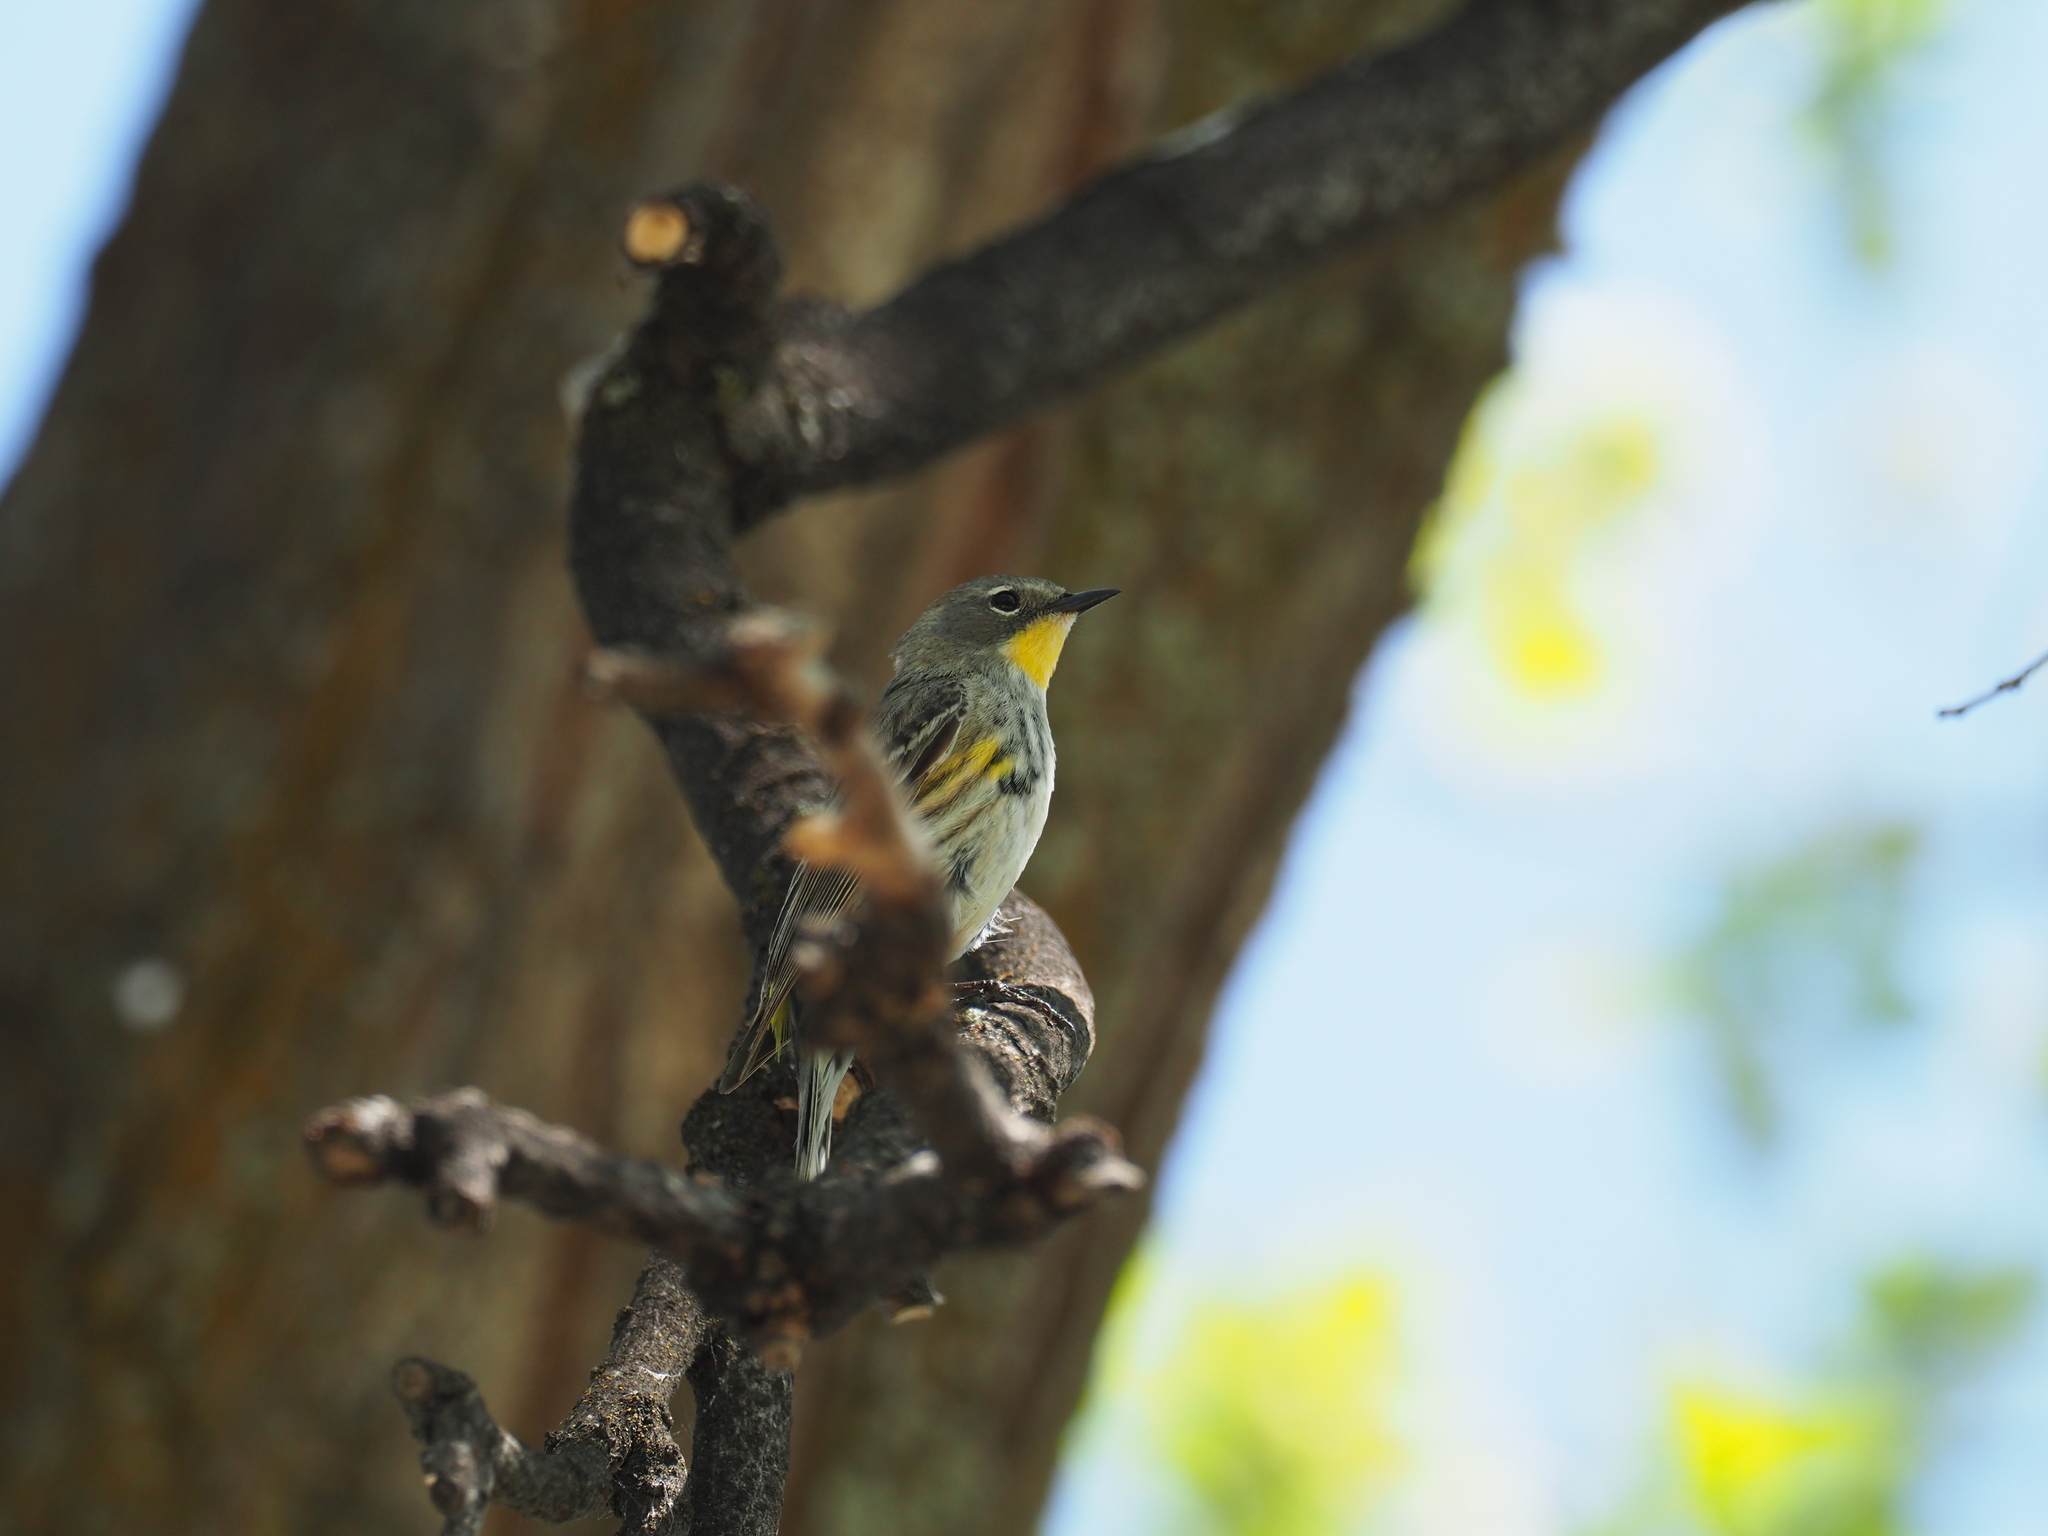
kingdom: Animalia
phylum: Chordata
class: Aves
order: Passeriformes
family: Parulidae
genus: Setophaga
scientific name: Setophaga auduboni
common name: Audubon's warbler
